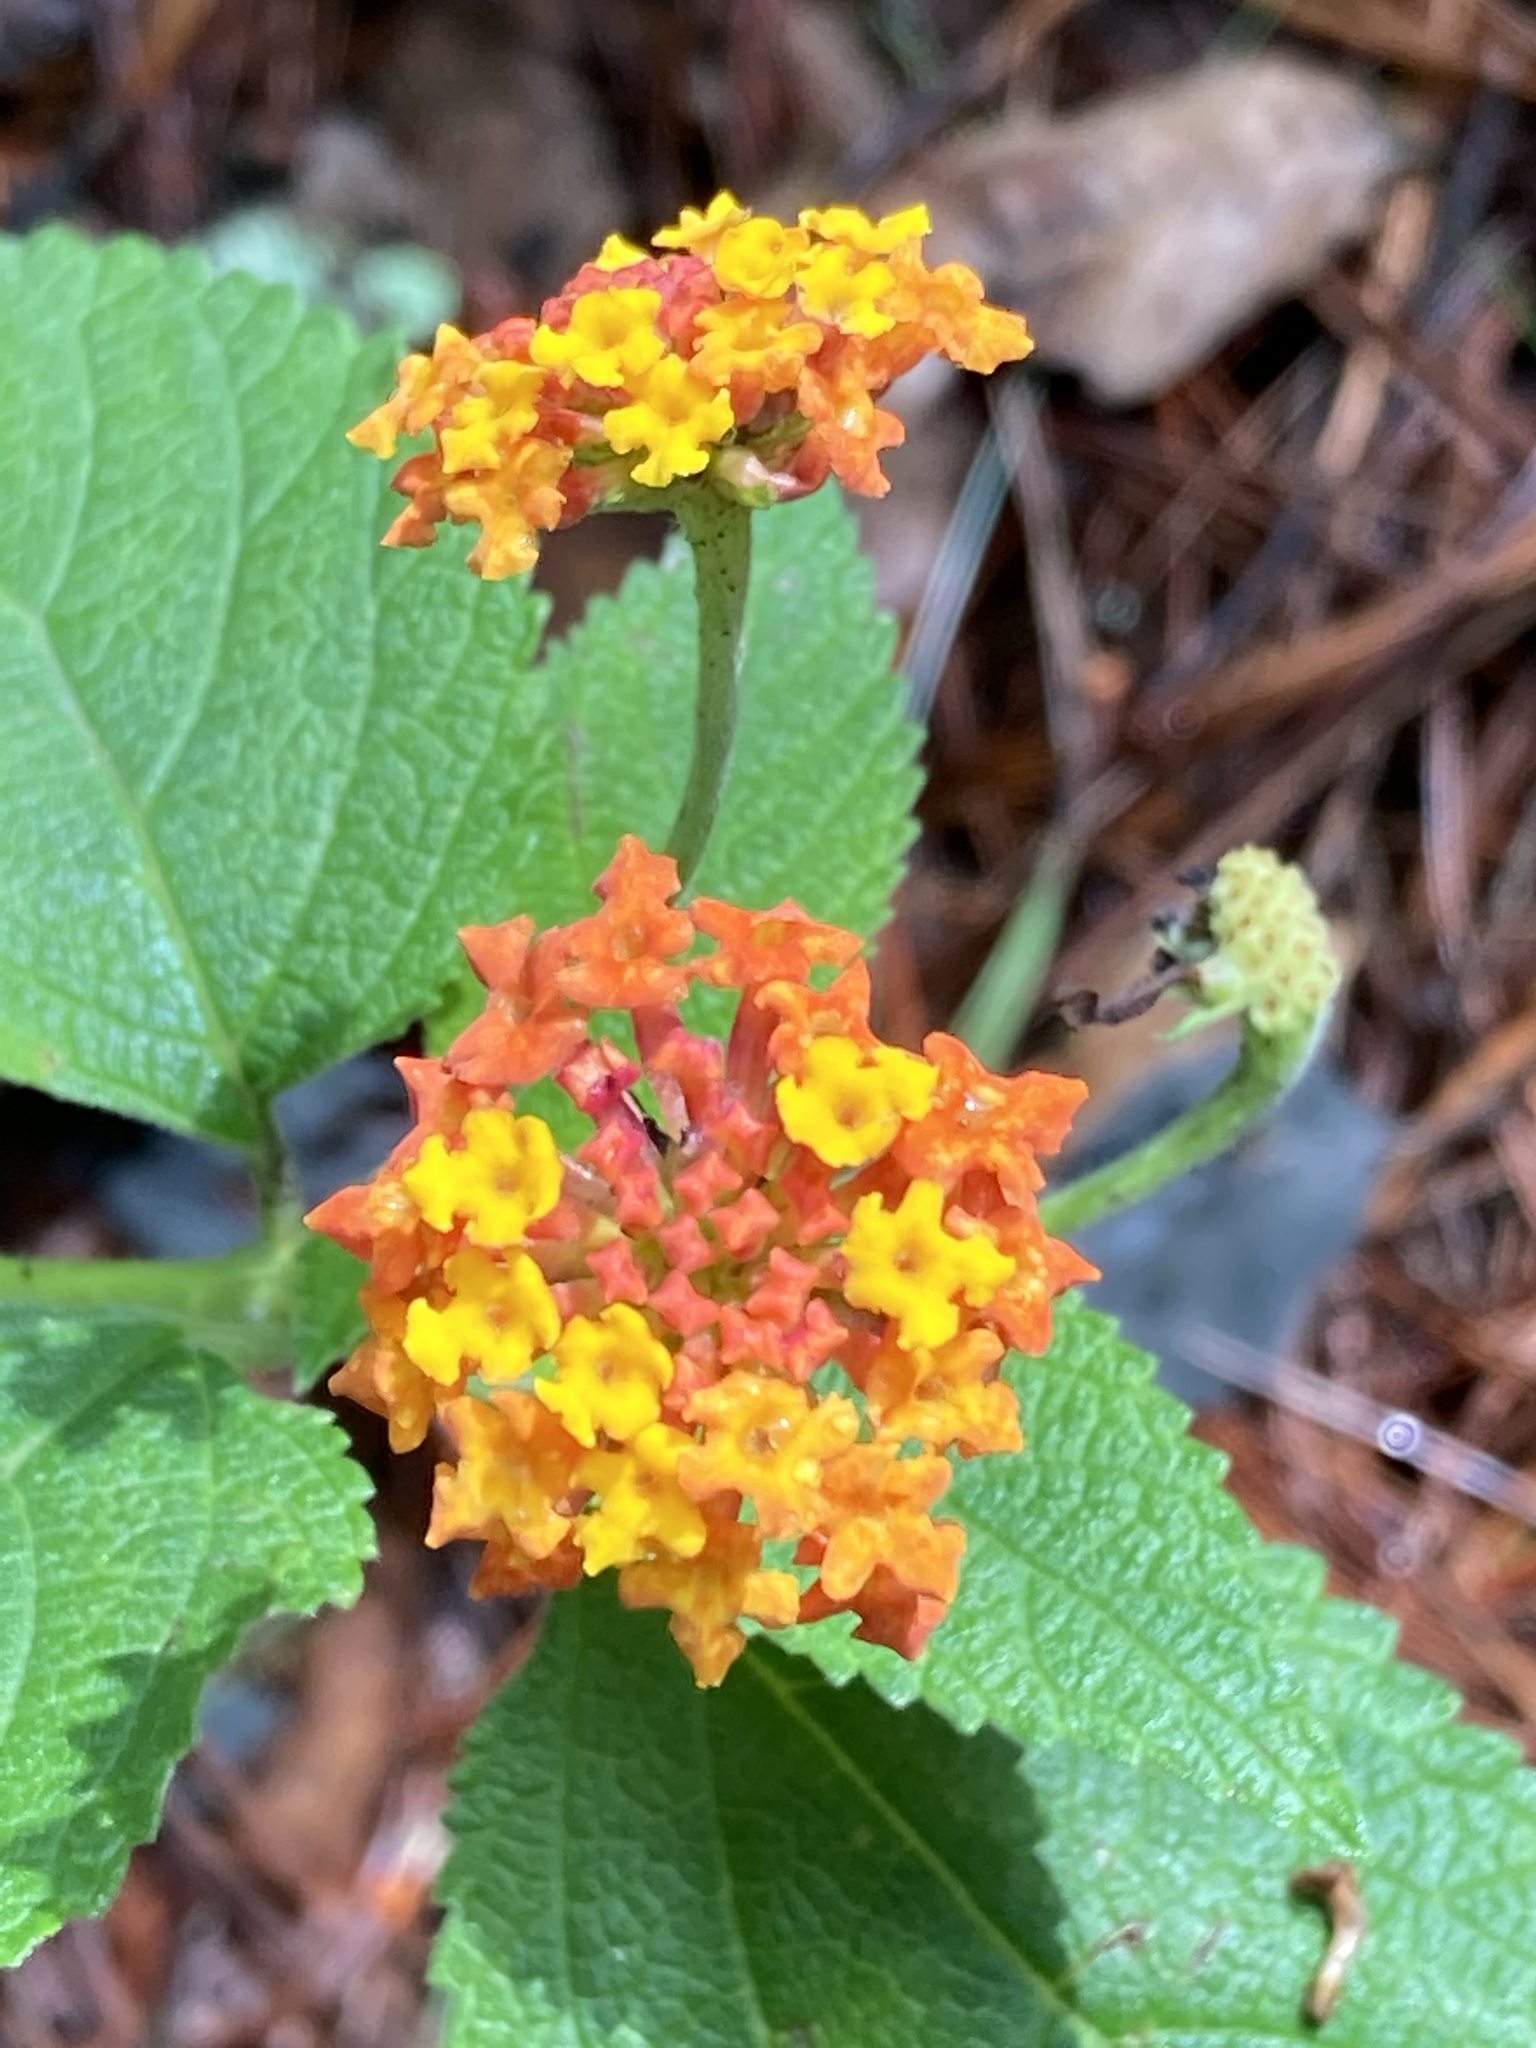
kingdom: Plantae
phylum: Tracheophyta
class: Magnoliopsida
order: Lamiales
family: Verbenaceae
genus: Lantana
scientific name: Lantana camara
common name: Lantana
